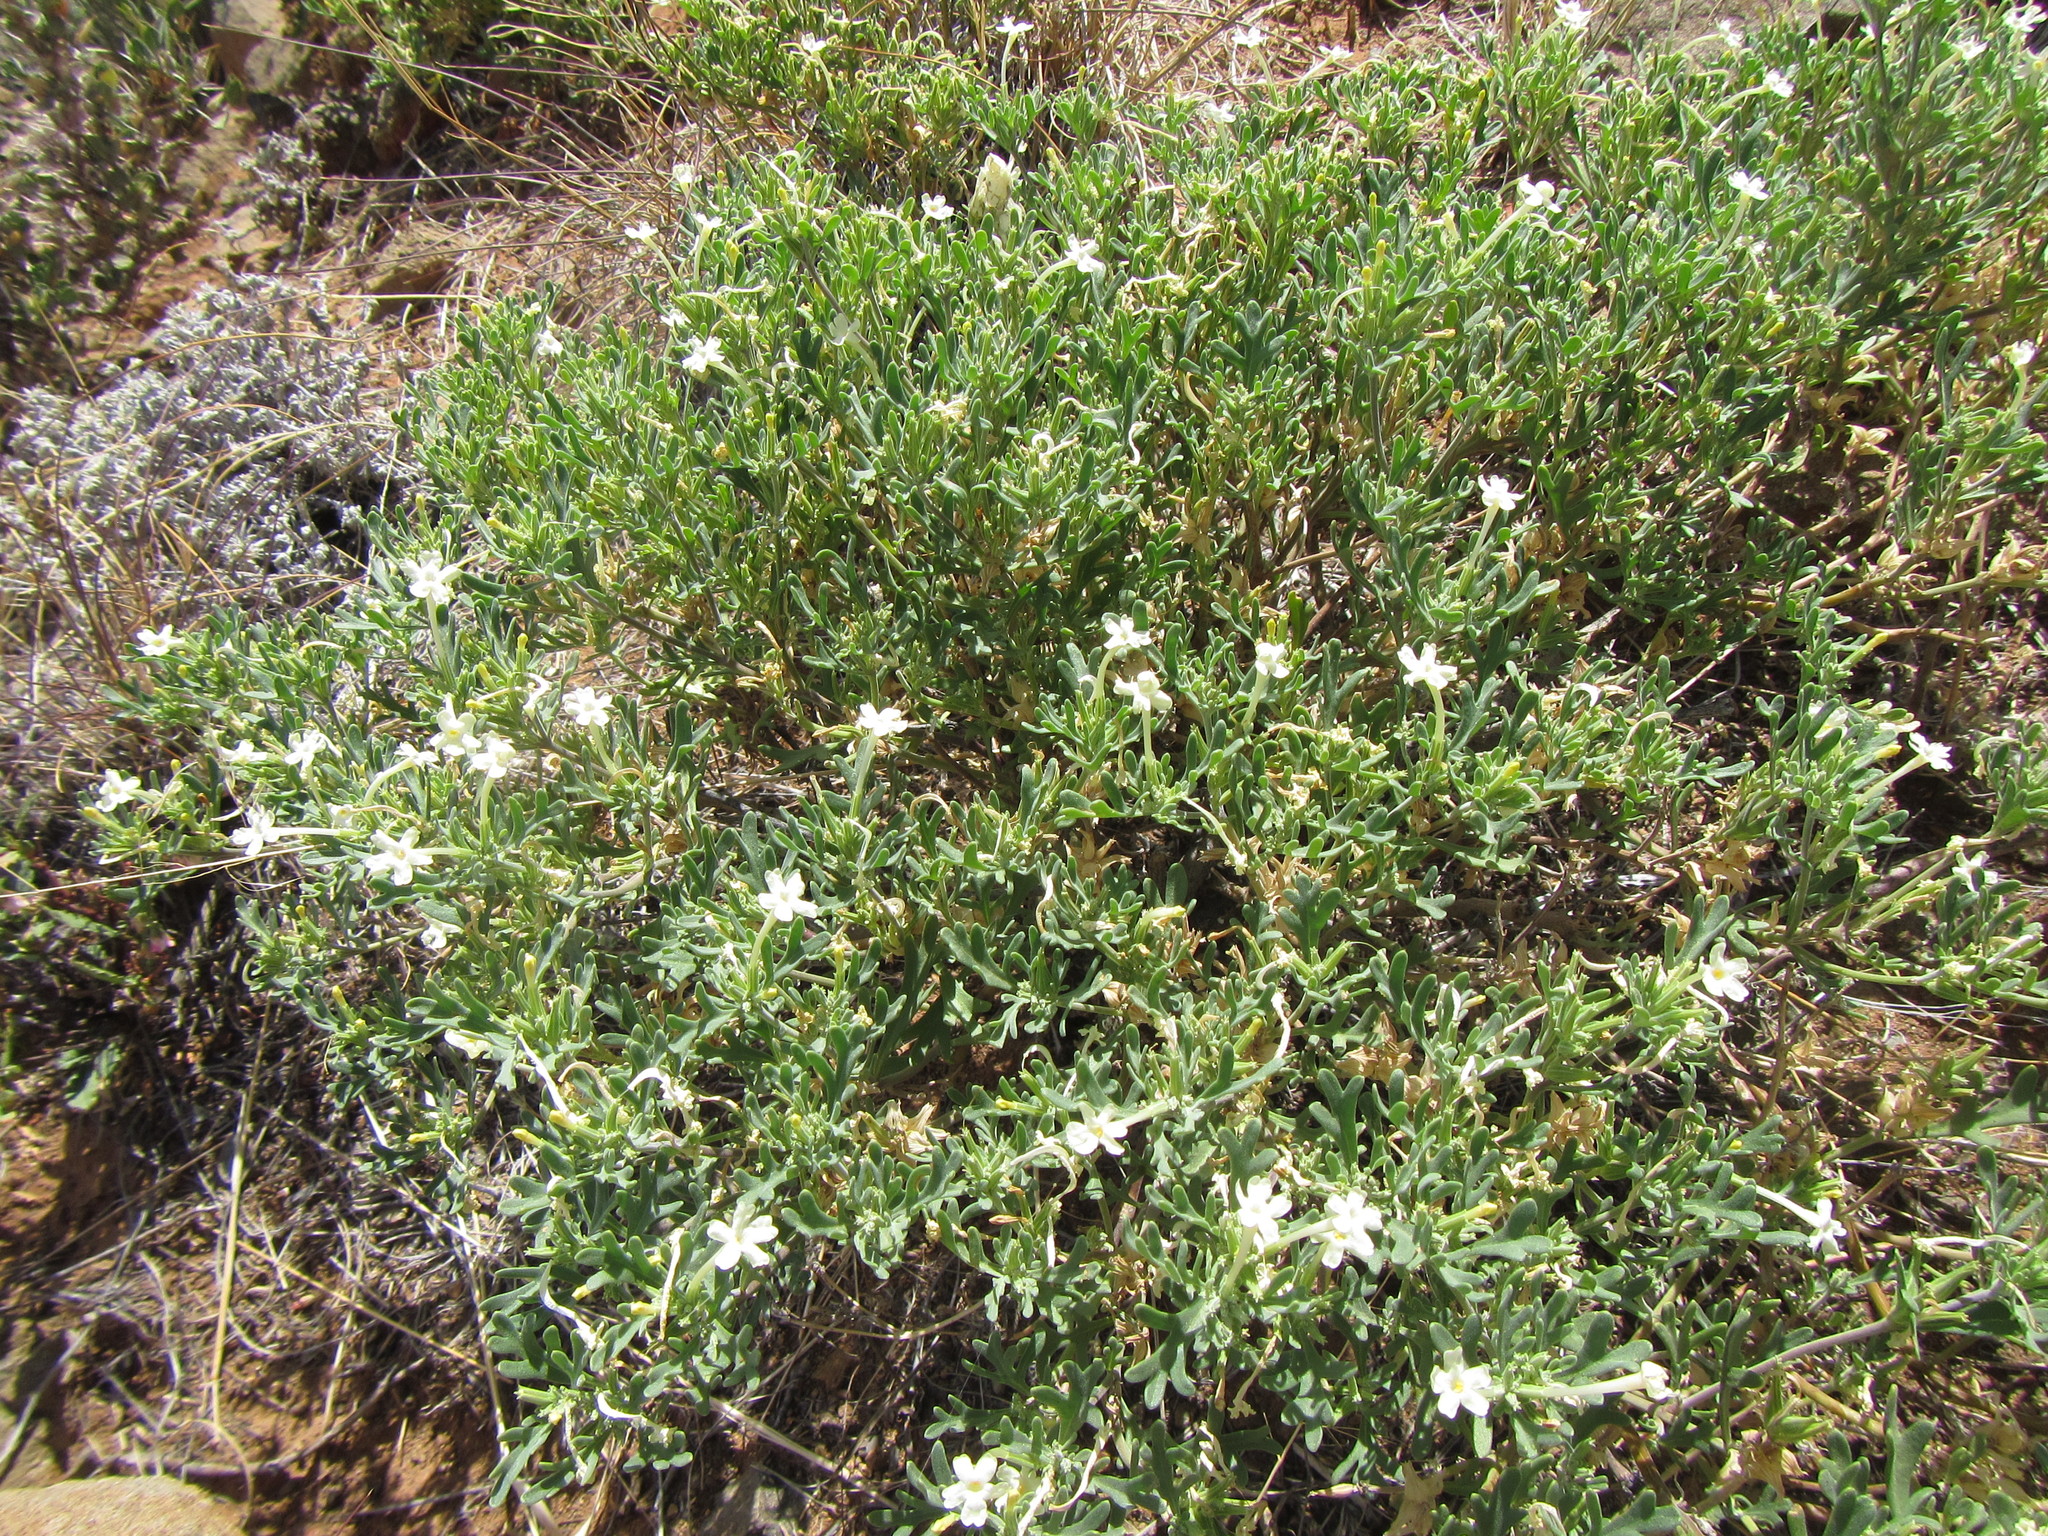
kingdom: Plantae
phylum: Tracheophyta
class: Magnoliopsida
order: Lamiales
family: Verbenaceae
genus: Chascanum
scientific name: Chascanum pinnatifidum
